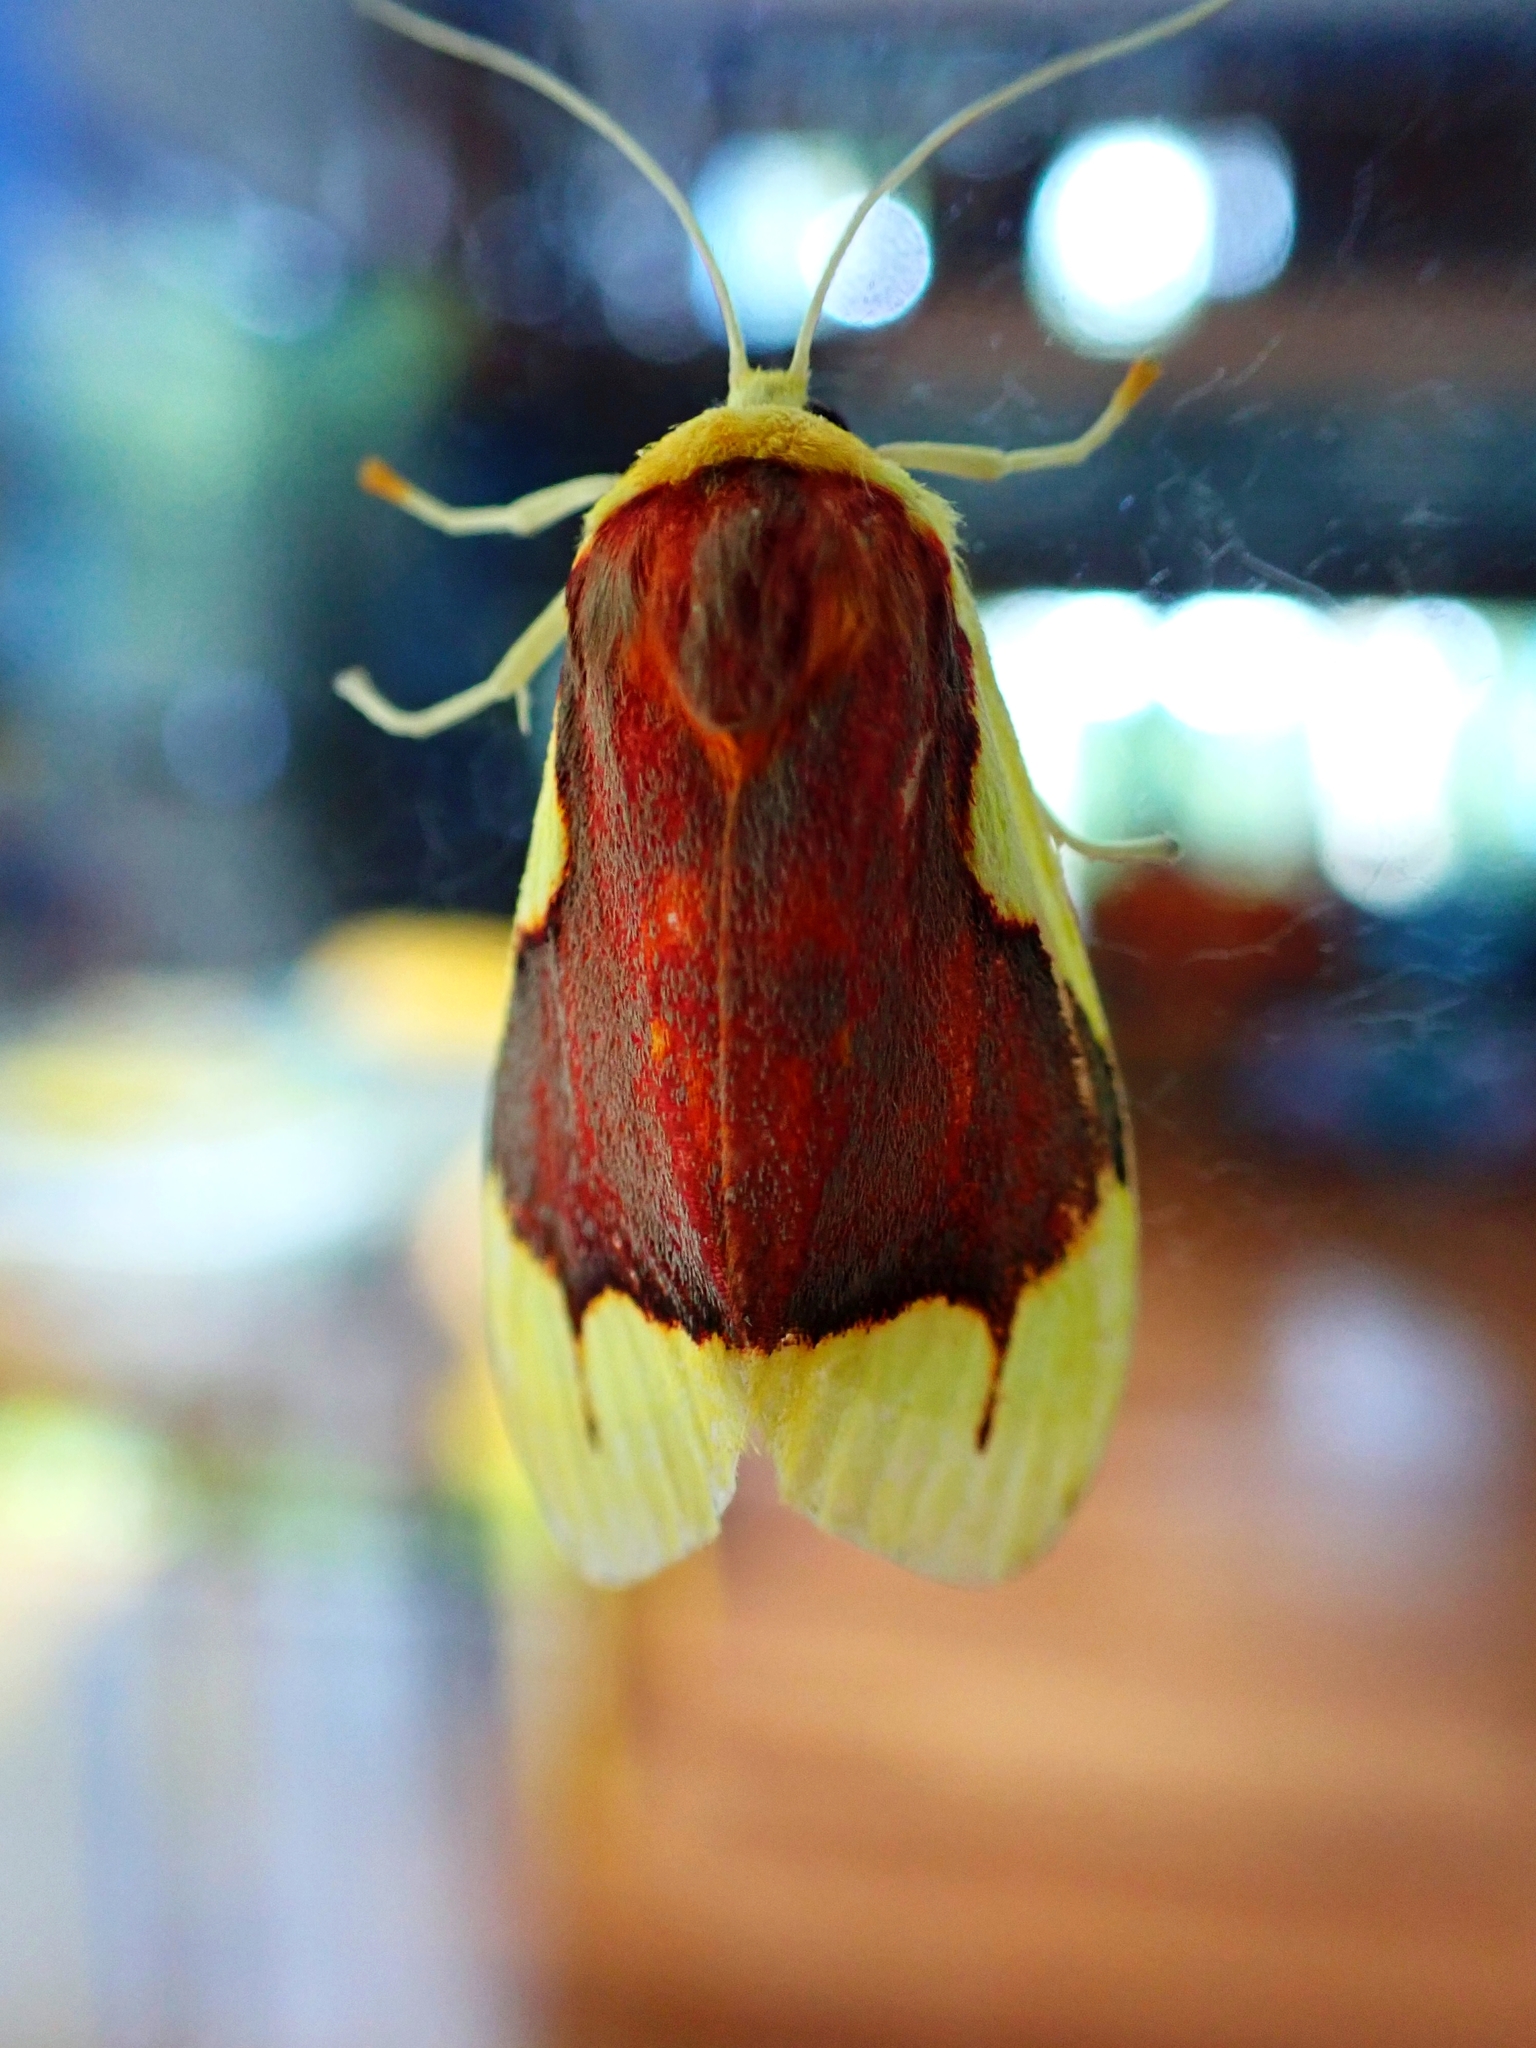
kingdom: Animalia
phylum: Arthropoda
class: Insecta
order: Lepidoptera
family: Lacturidae
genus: Lactura
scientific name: Lactura aglaodora
